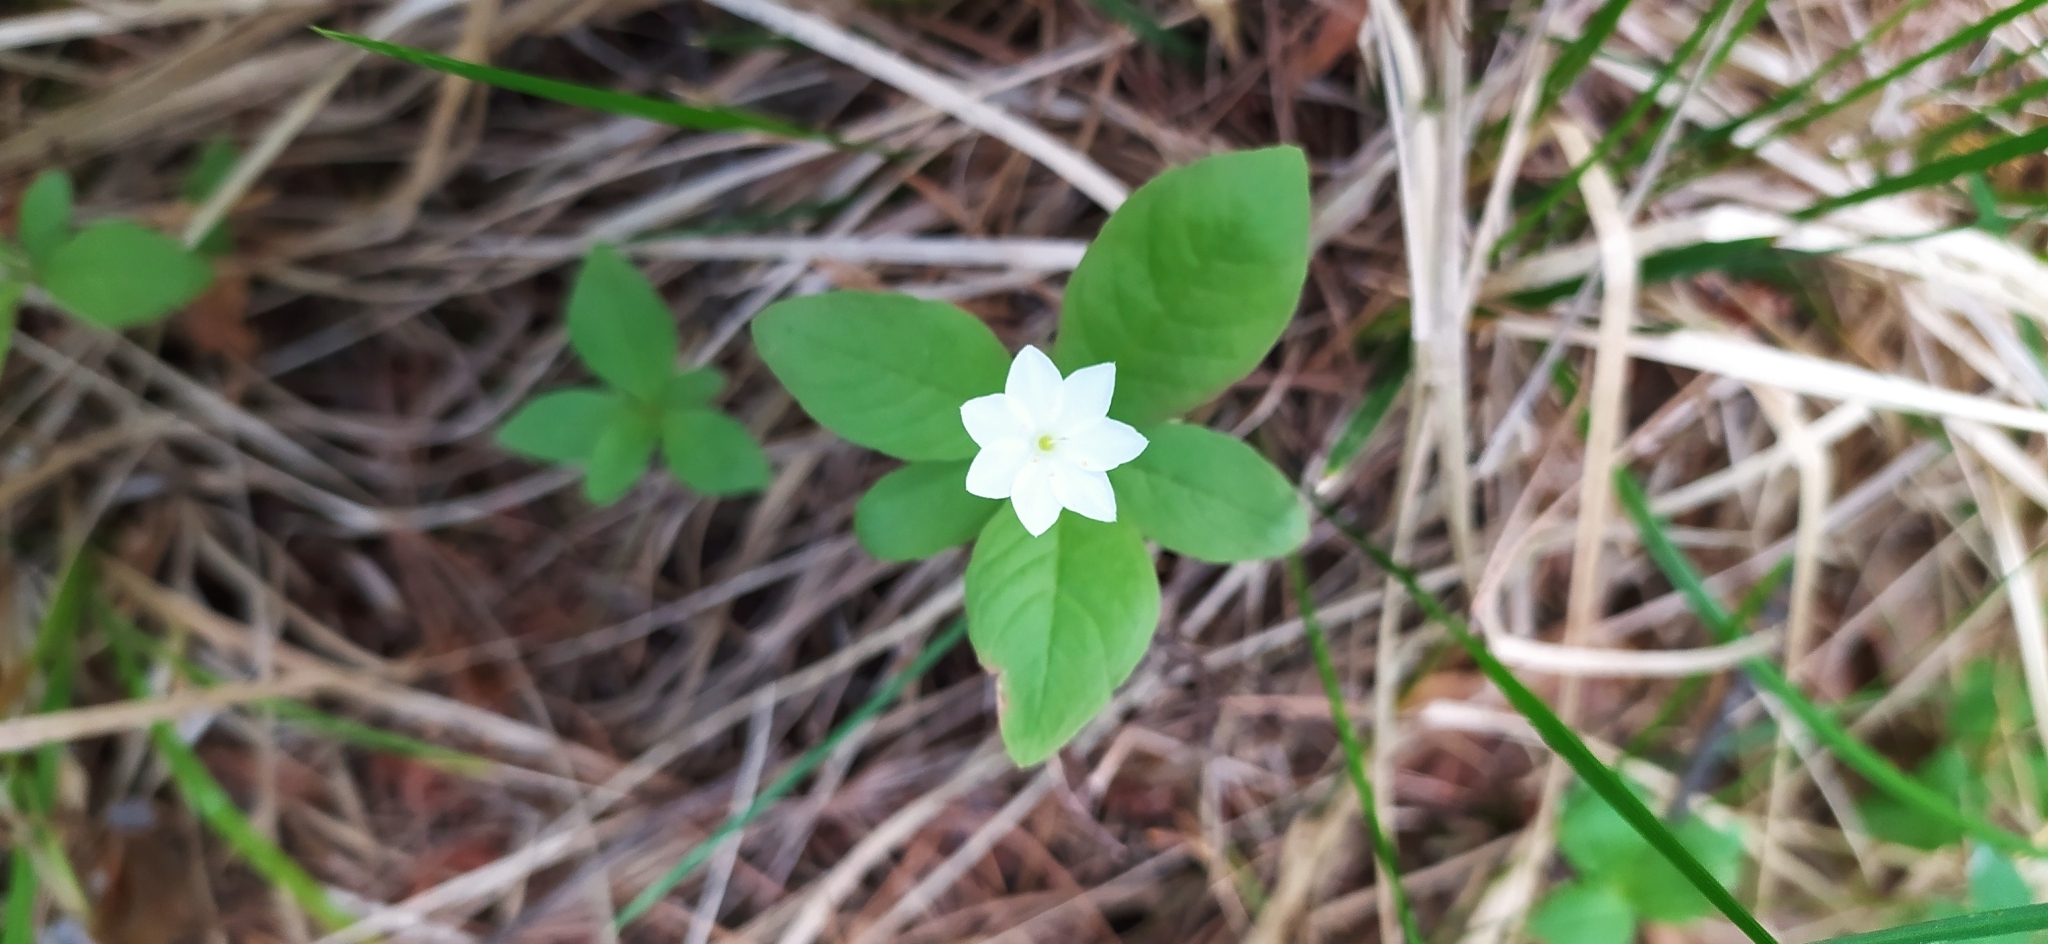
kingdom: Plantae
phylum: Tracheophyta
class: Magnoliopsida
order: Ericales
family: Primulaceae
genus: Lysimachia
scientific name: Lysimachia europaea
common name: Arctic starflower
